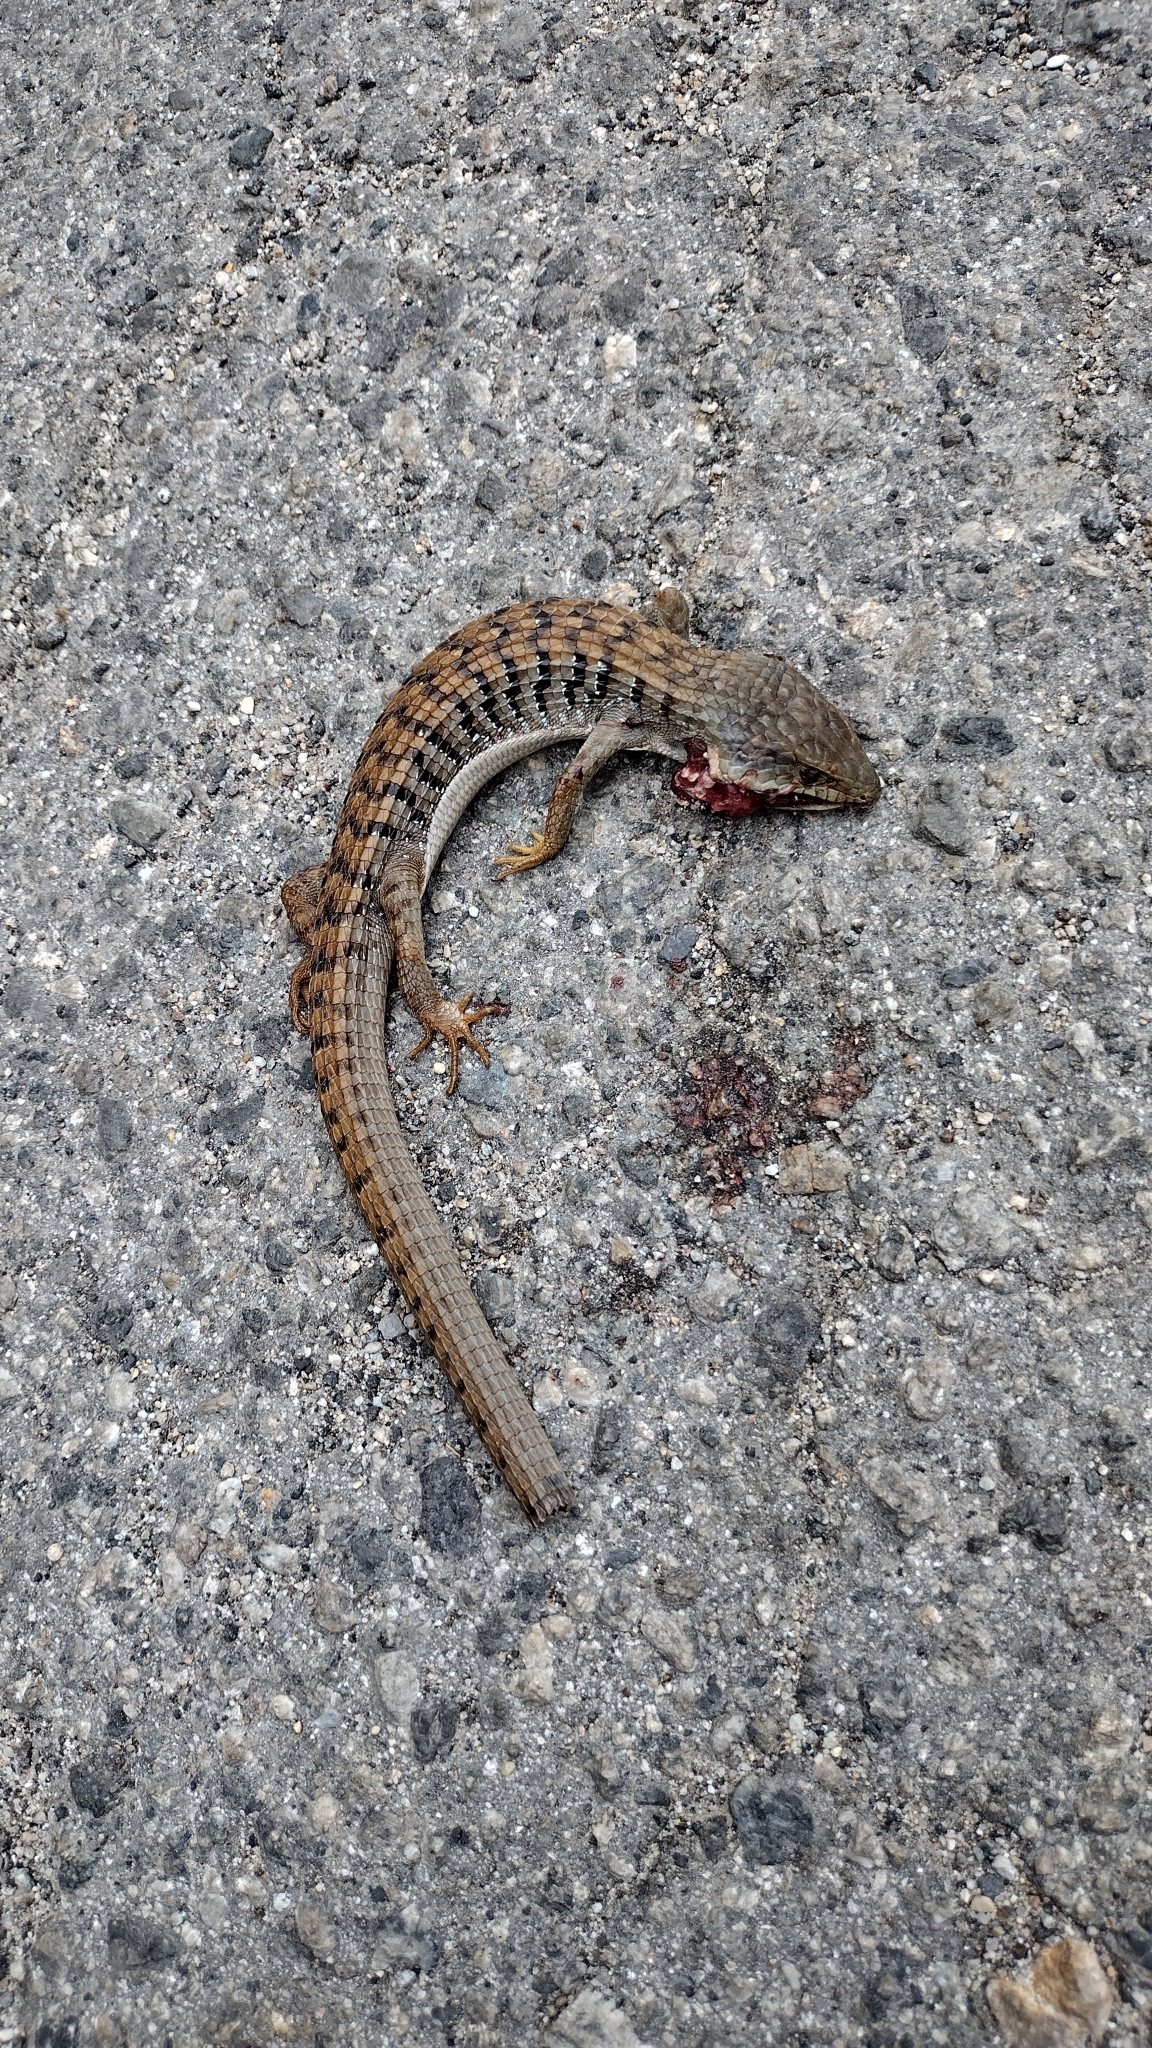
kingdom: Animalia
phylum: Chordata
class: Squamata
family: Anguidae
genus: Elgaria
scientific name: Elgaria multicarinata
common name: Southern alligator lizard
